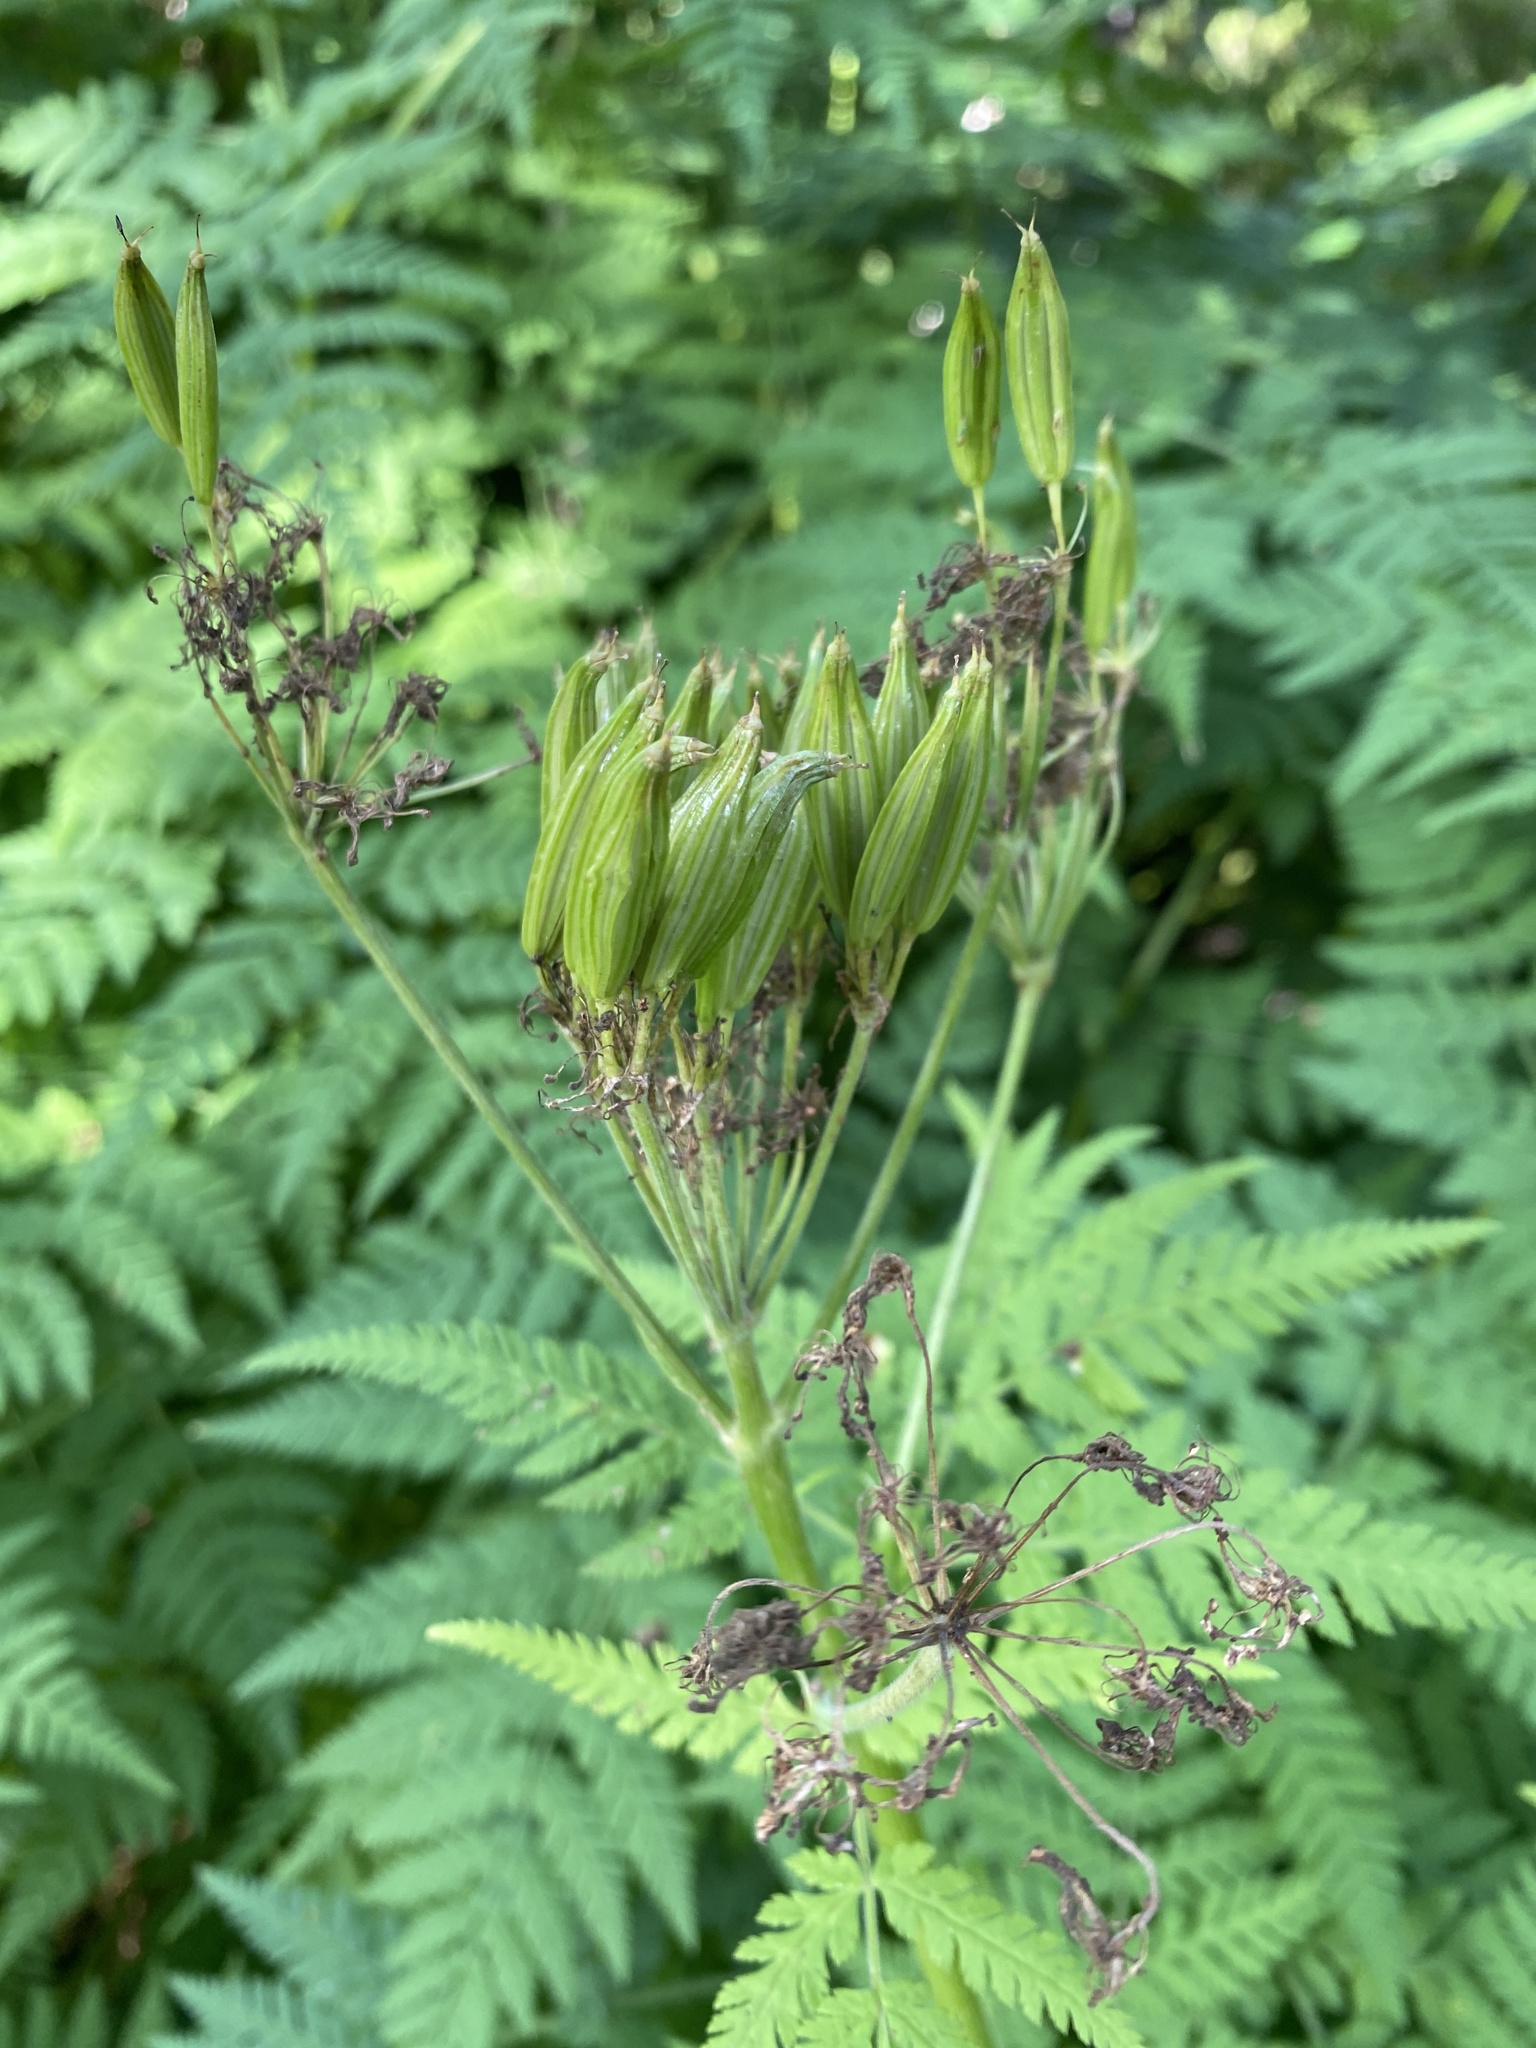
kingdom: Plantae
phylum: Tracheophyta
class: Magnoliopsida
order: Apiales
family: Apiaceae
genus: Myrrhis
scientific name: Myrrhis odorata
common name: Sweet cicely
